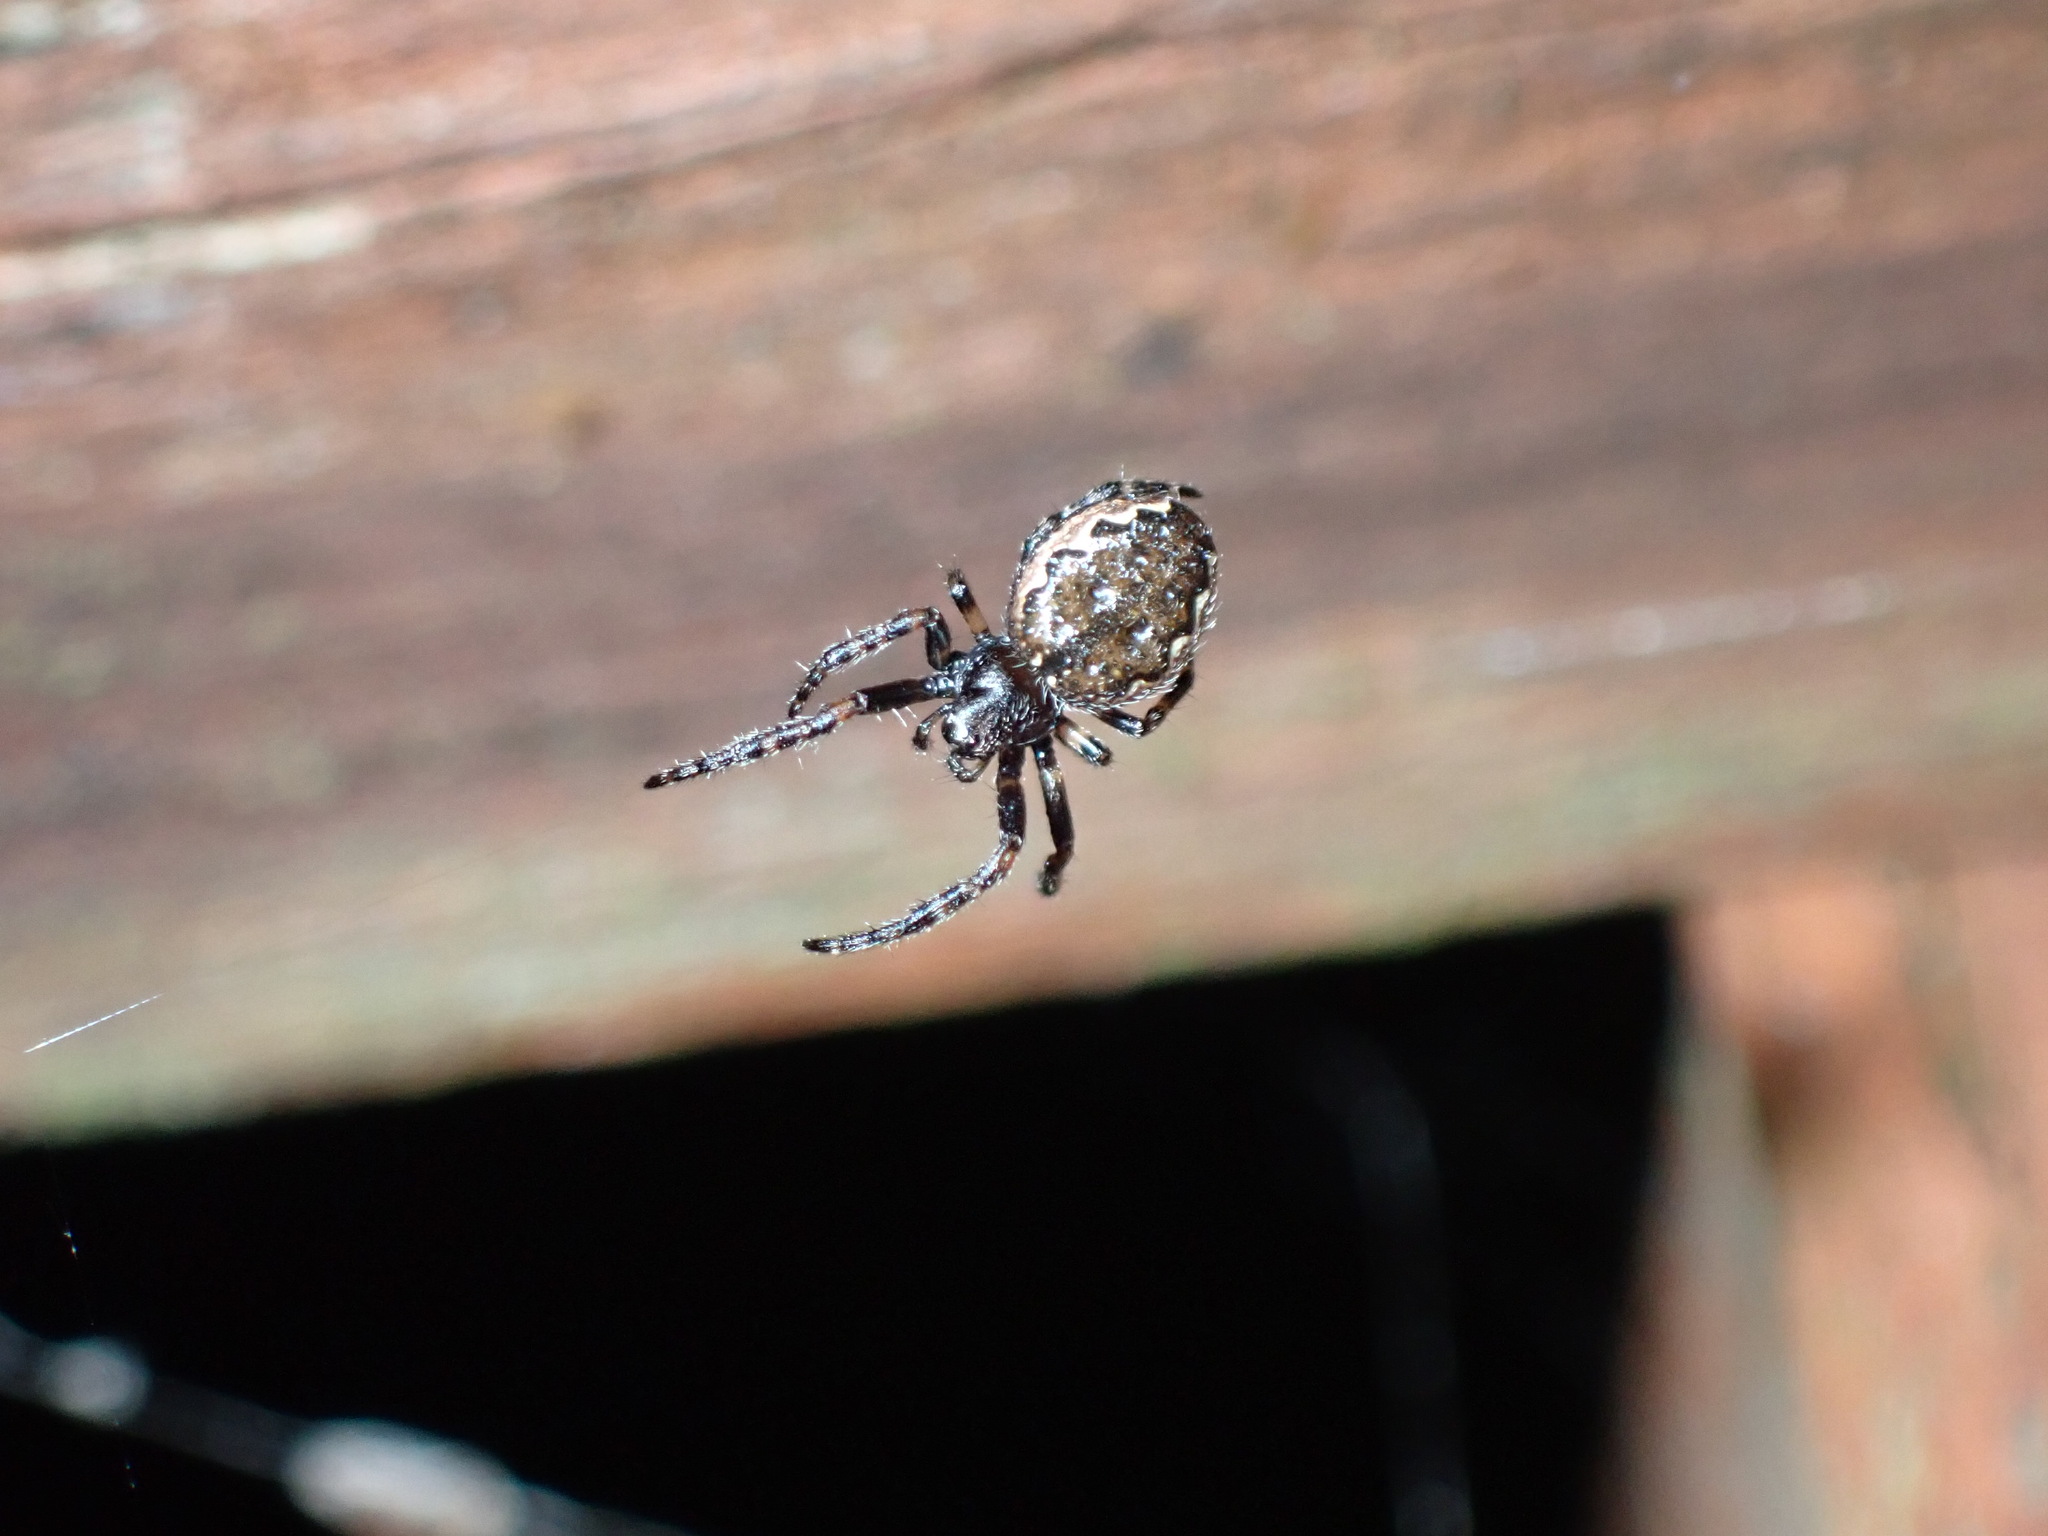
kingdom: Animalia
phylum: Arthropoda
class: Arachnida
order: Araneae
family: Araneidae
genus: Nuctenea
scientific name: Nuctenea umbratica
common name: Toad spider
